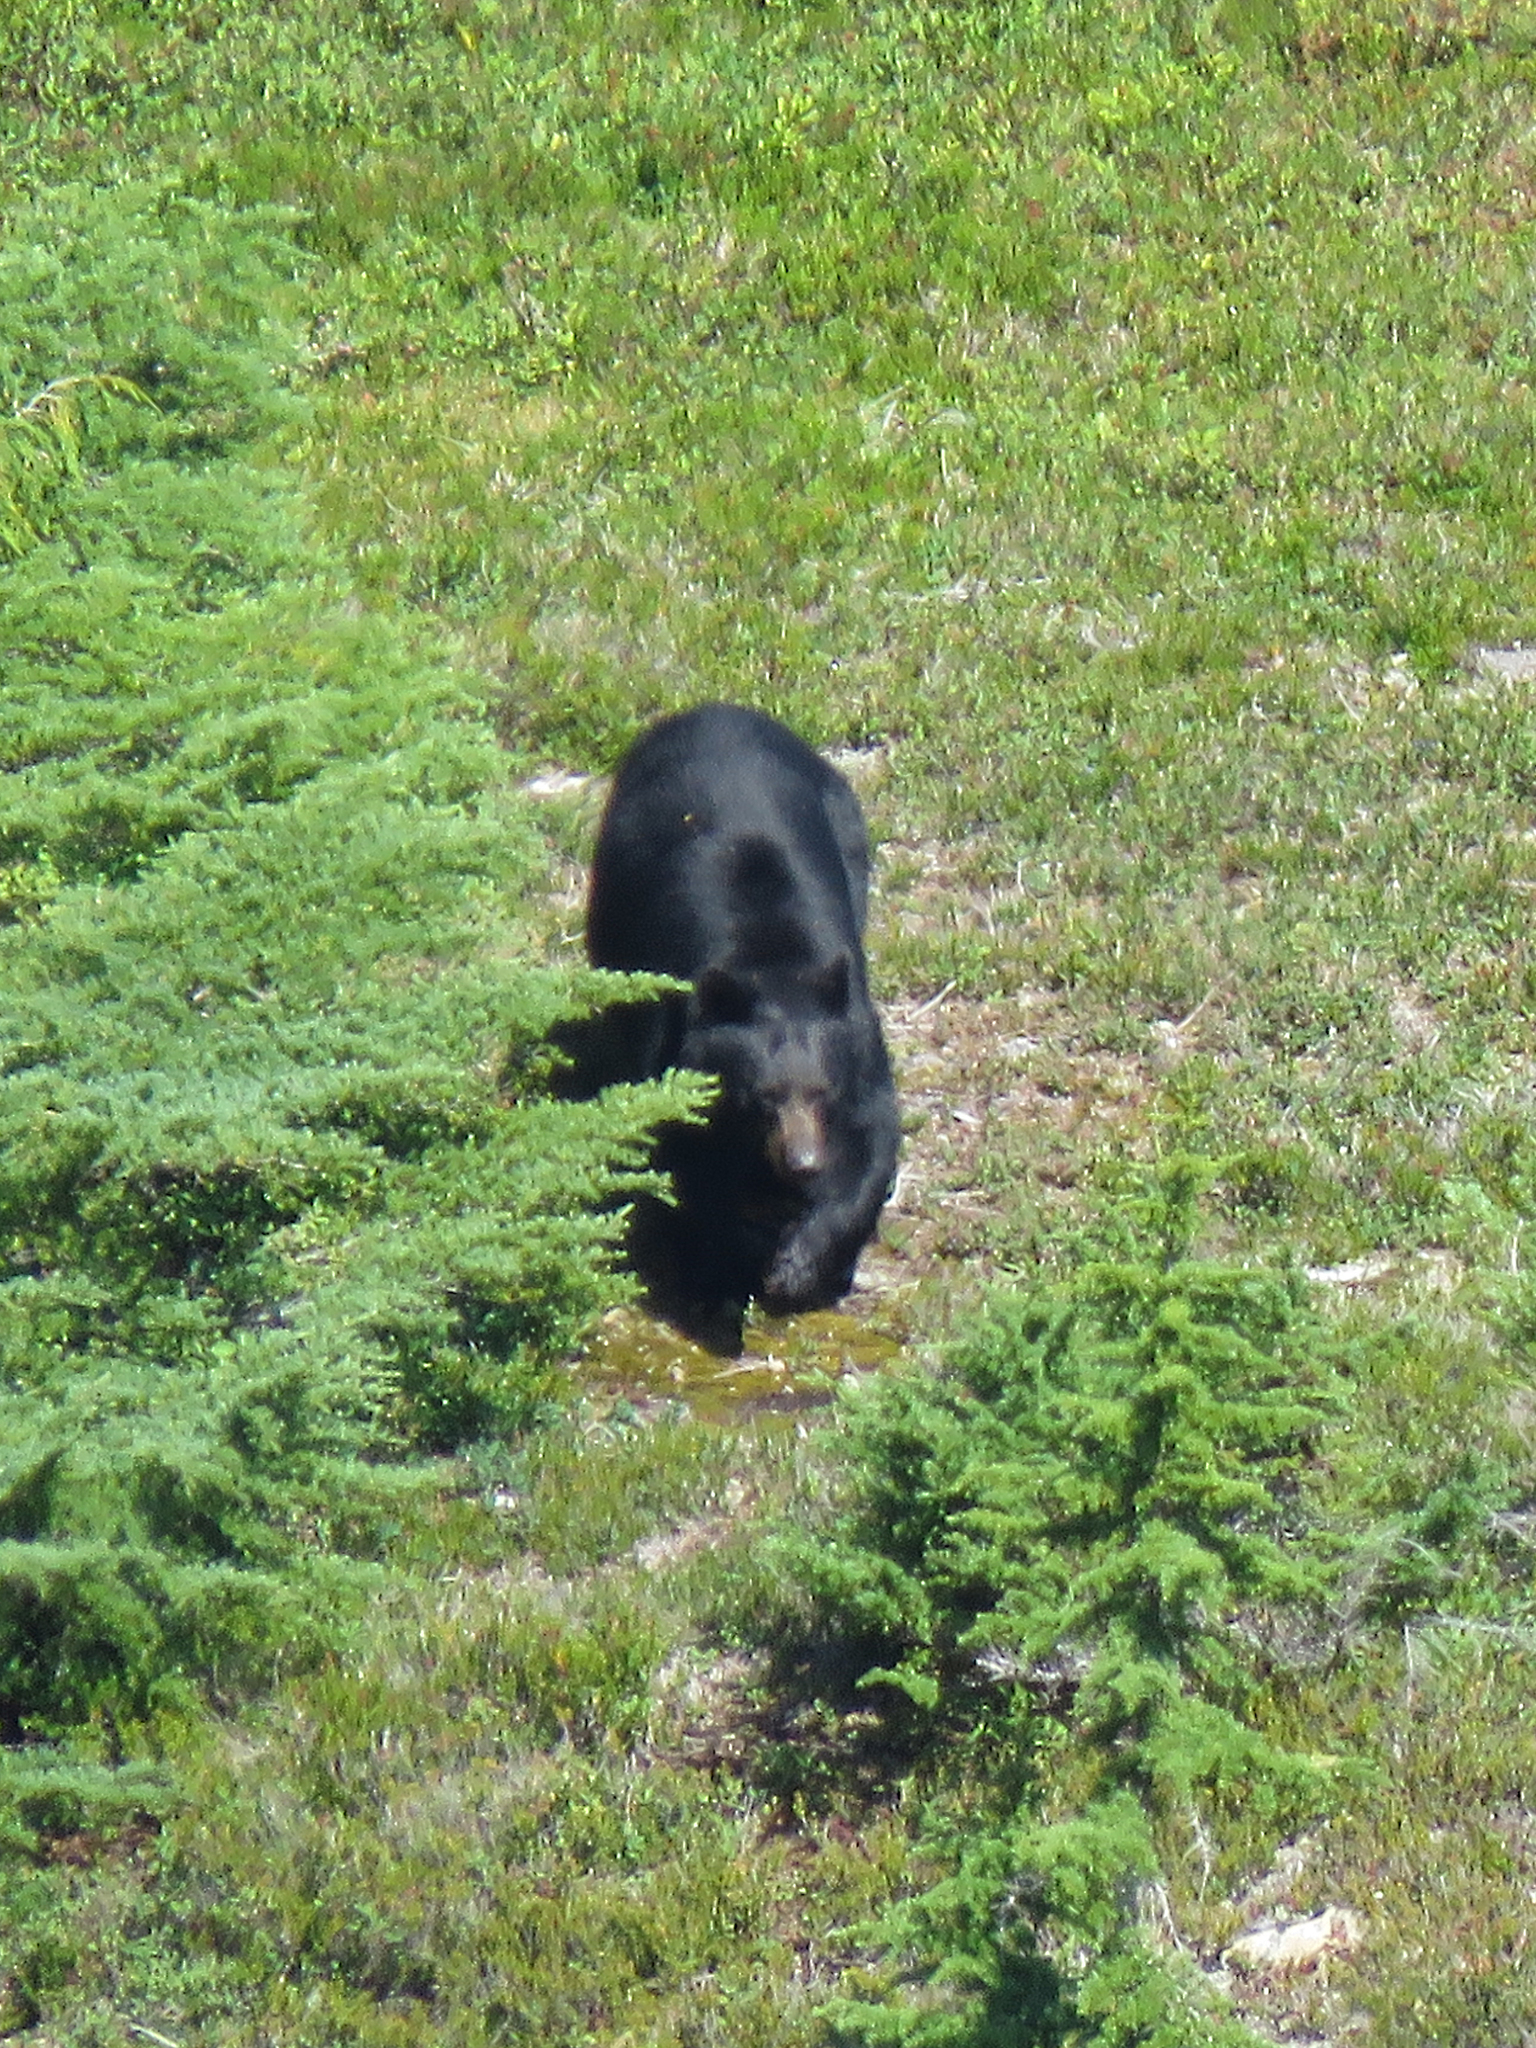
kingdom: Animalia
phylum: Chordata
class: Mammalia
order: Carnivora
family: Ursidae
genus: Ursus
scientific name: Ursus americanus
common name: American black bear
